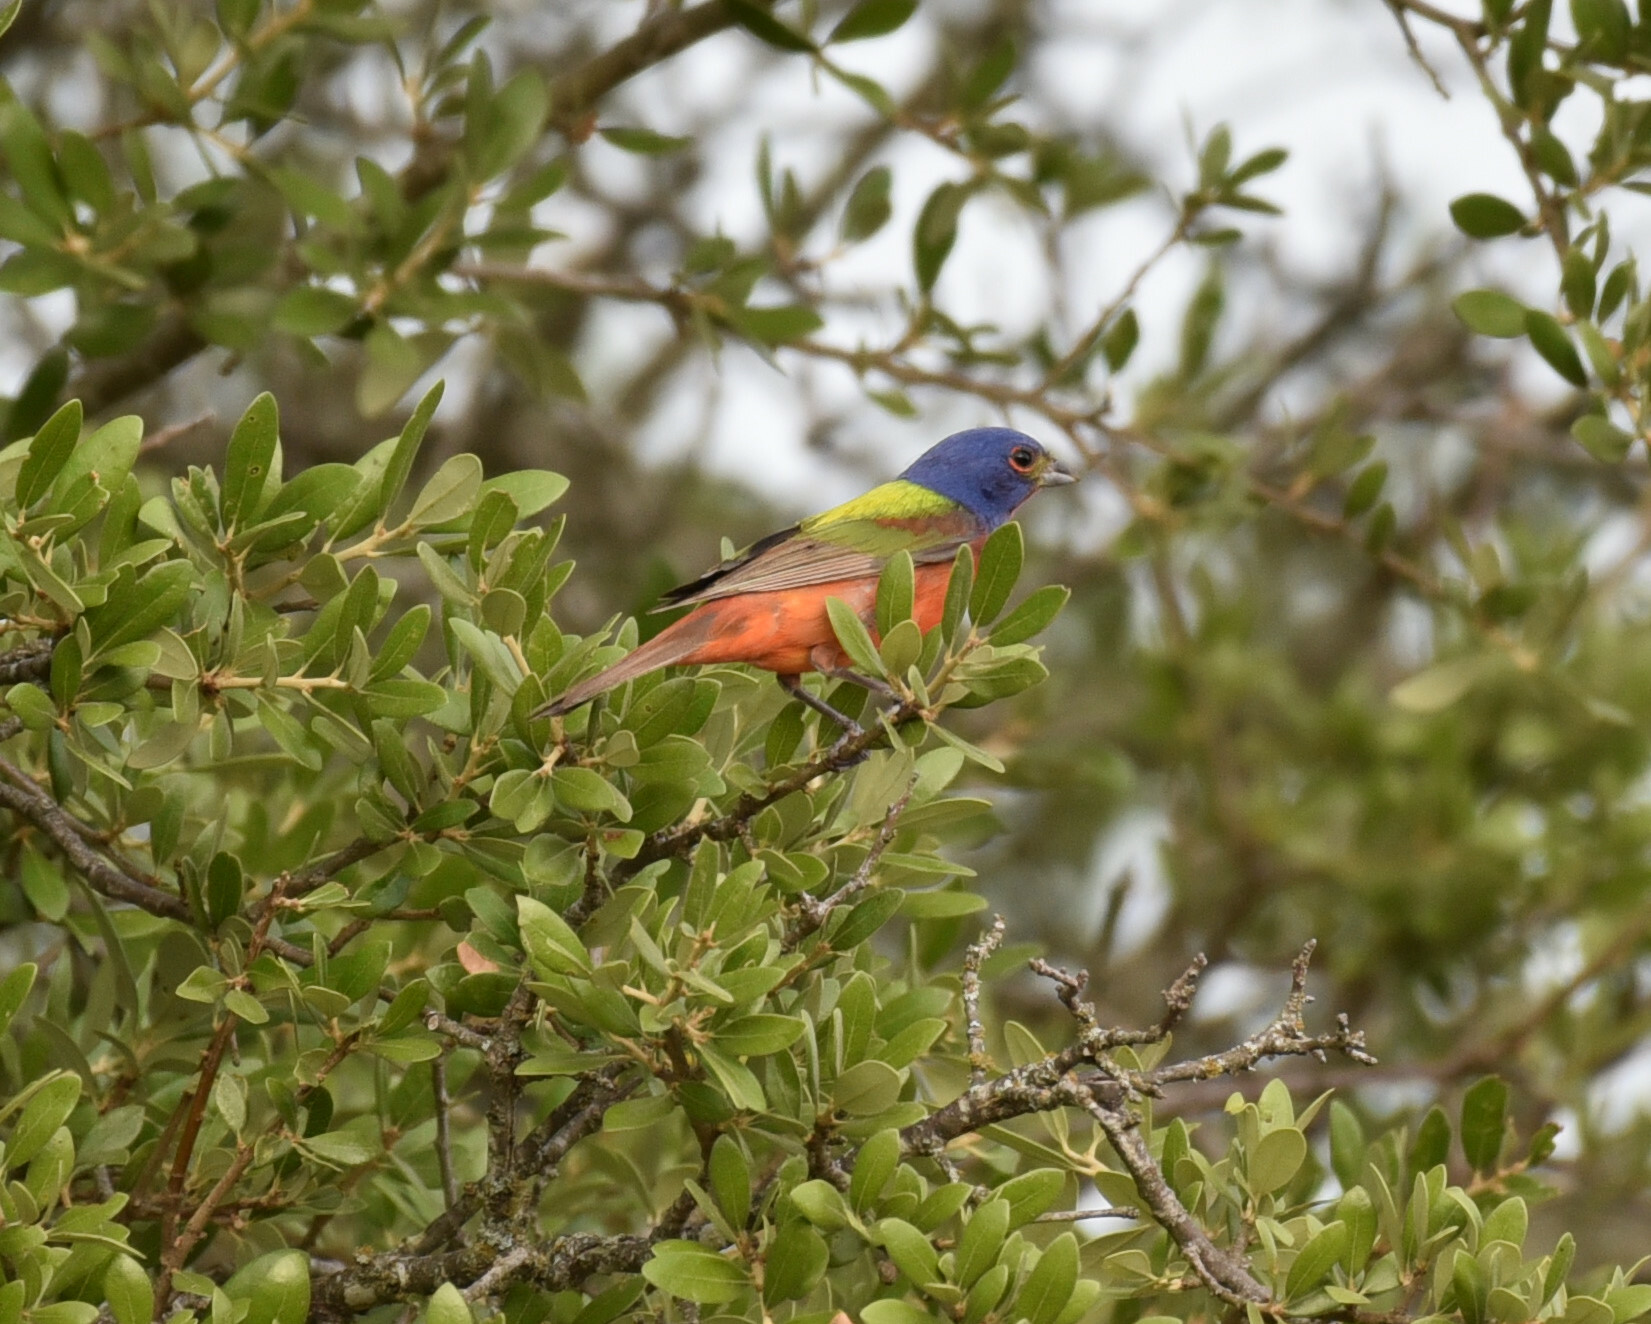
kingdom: Animalia
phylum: Chordata
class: Aves
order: Passeriformes
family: Cardinalidae
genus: Passerina
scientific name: Passerina ciris
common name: Painted bunting
